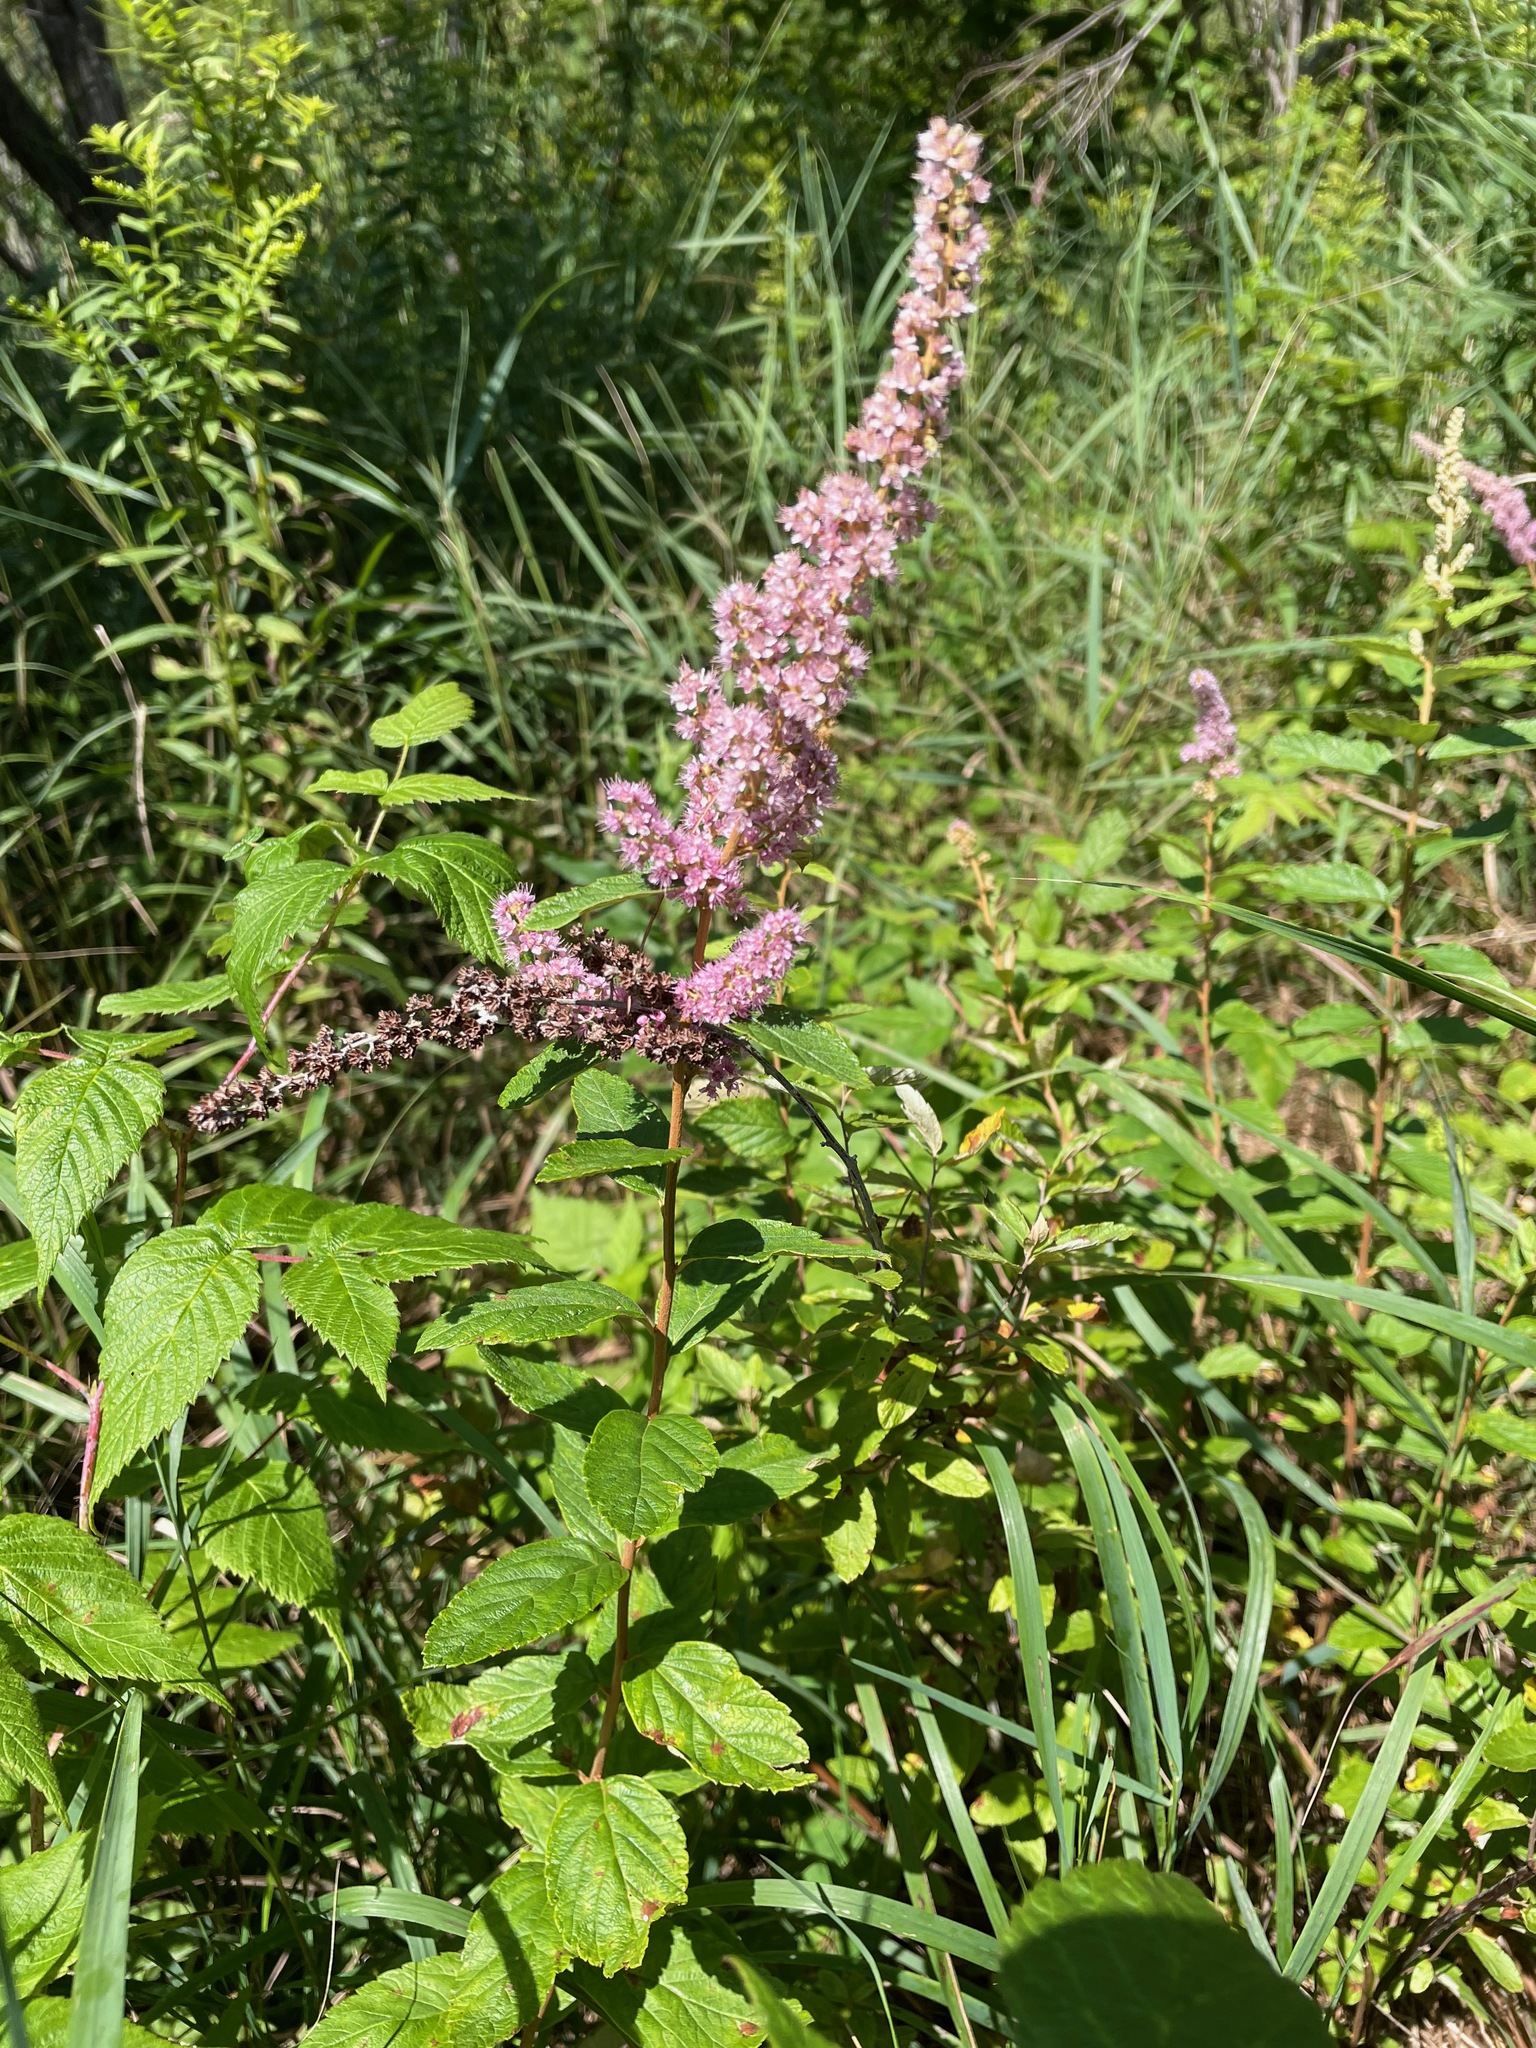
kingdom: Plantae
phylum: Tracheophyta
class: Magnoliopsida
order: Rosales
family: Rosaceae
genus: Spiraea
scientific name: Spiraea tomentosa
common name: Hardhack
